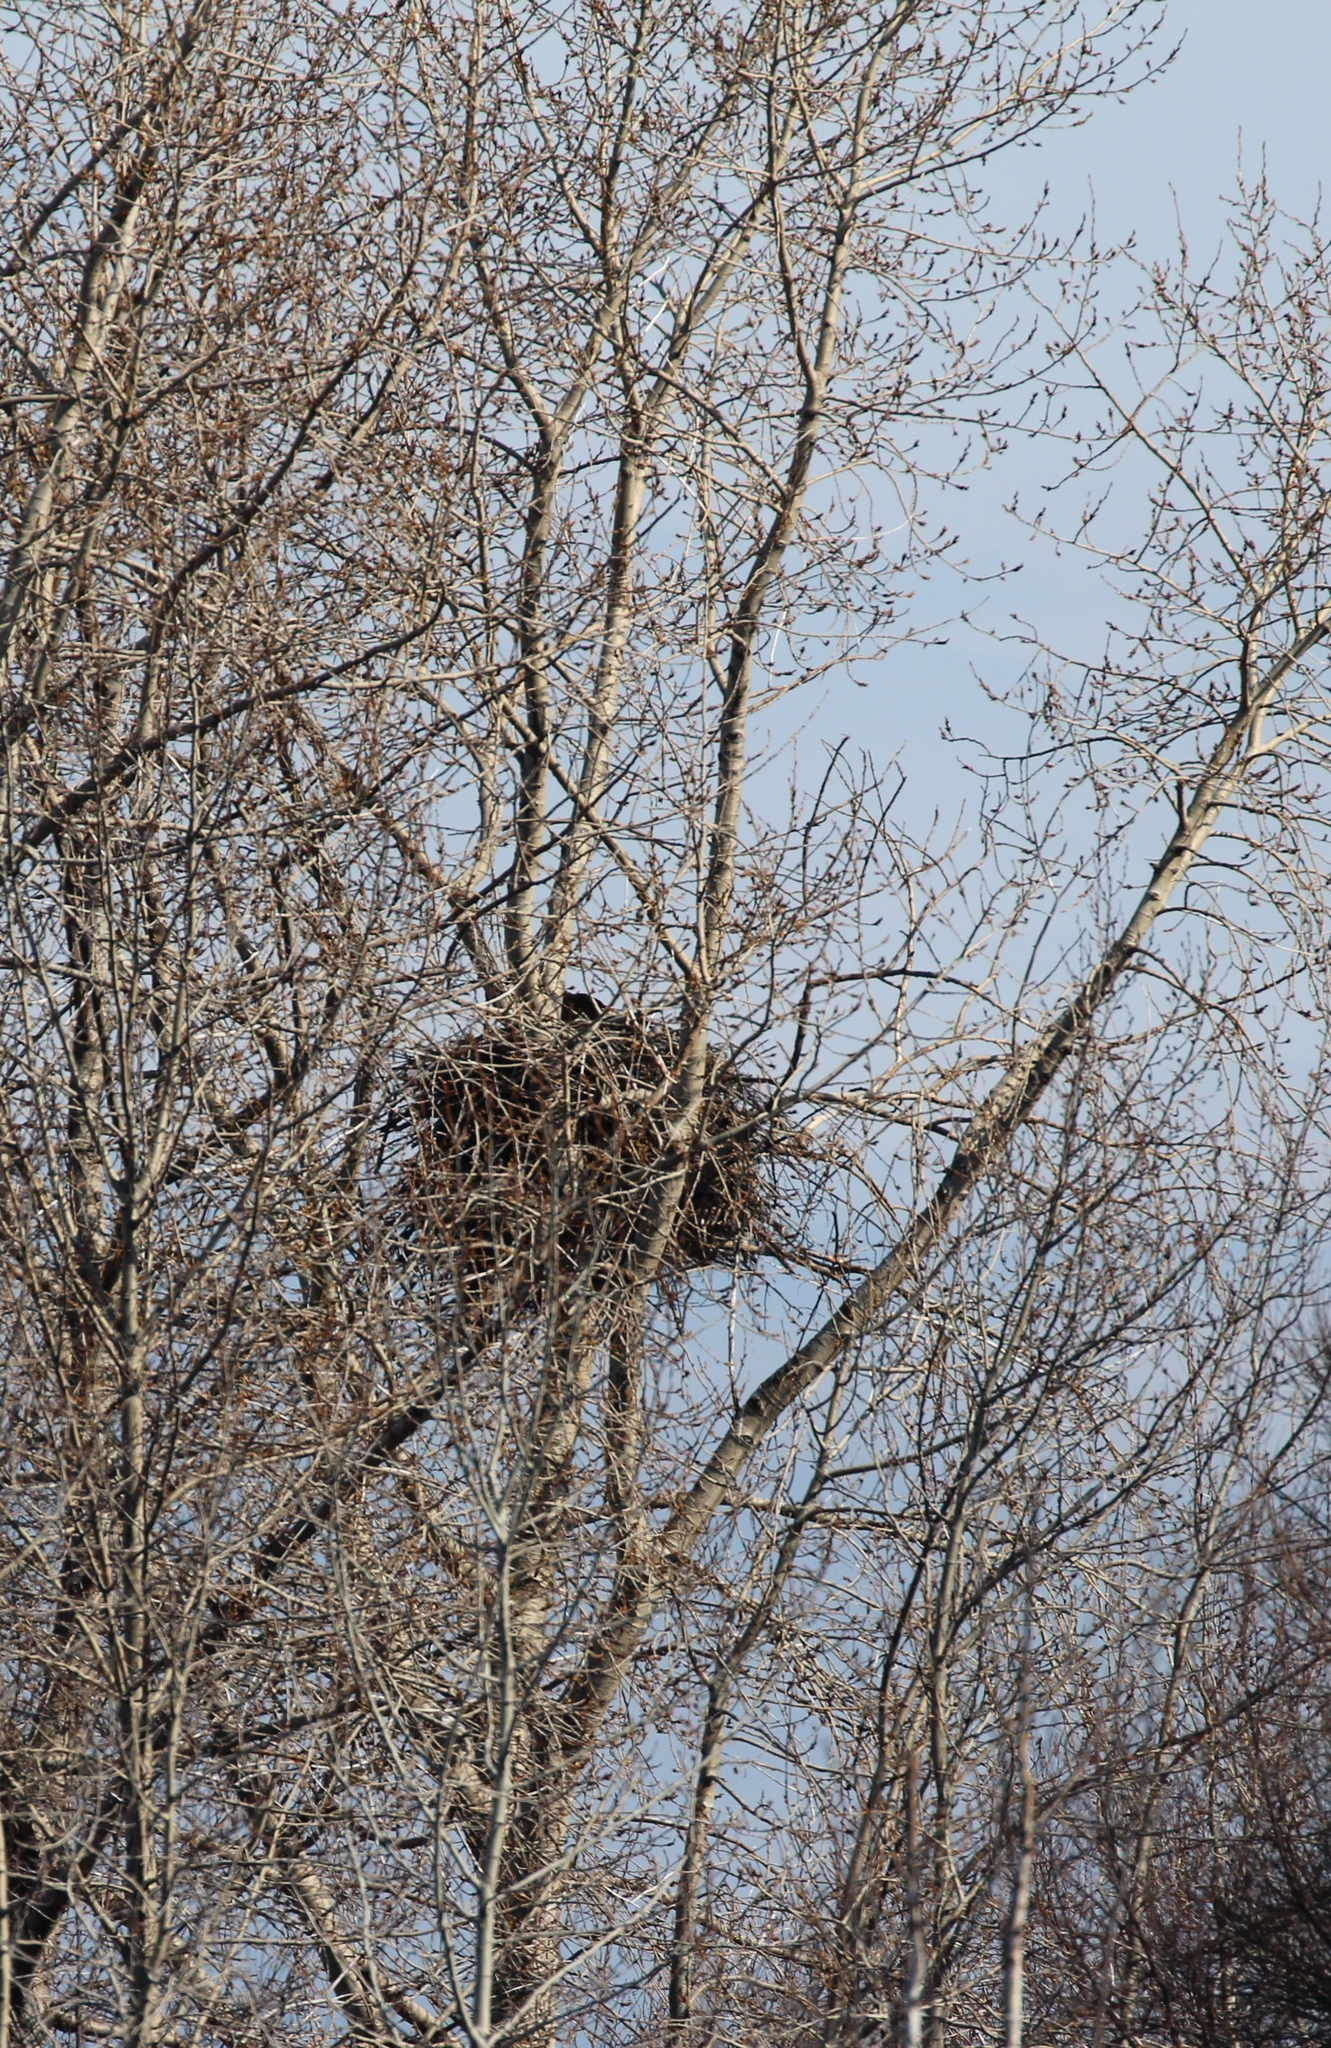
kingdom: Animalia
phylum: Chordata
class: Aves
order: Accipitriformes
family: Accipitridae
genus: Haliaeetus
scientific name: Haliaeetus leucocephalus
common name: Bald eagle
